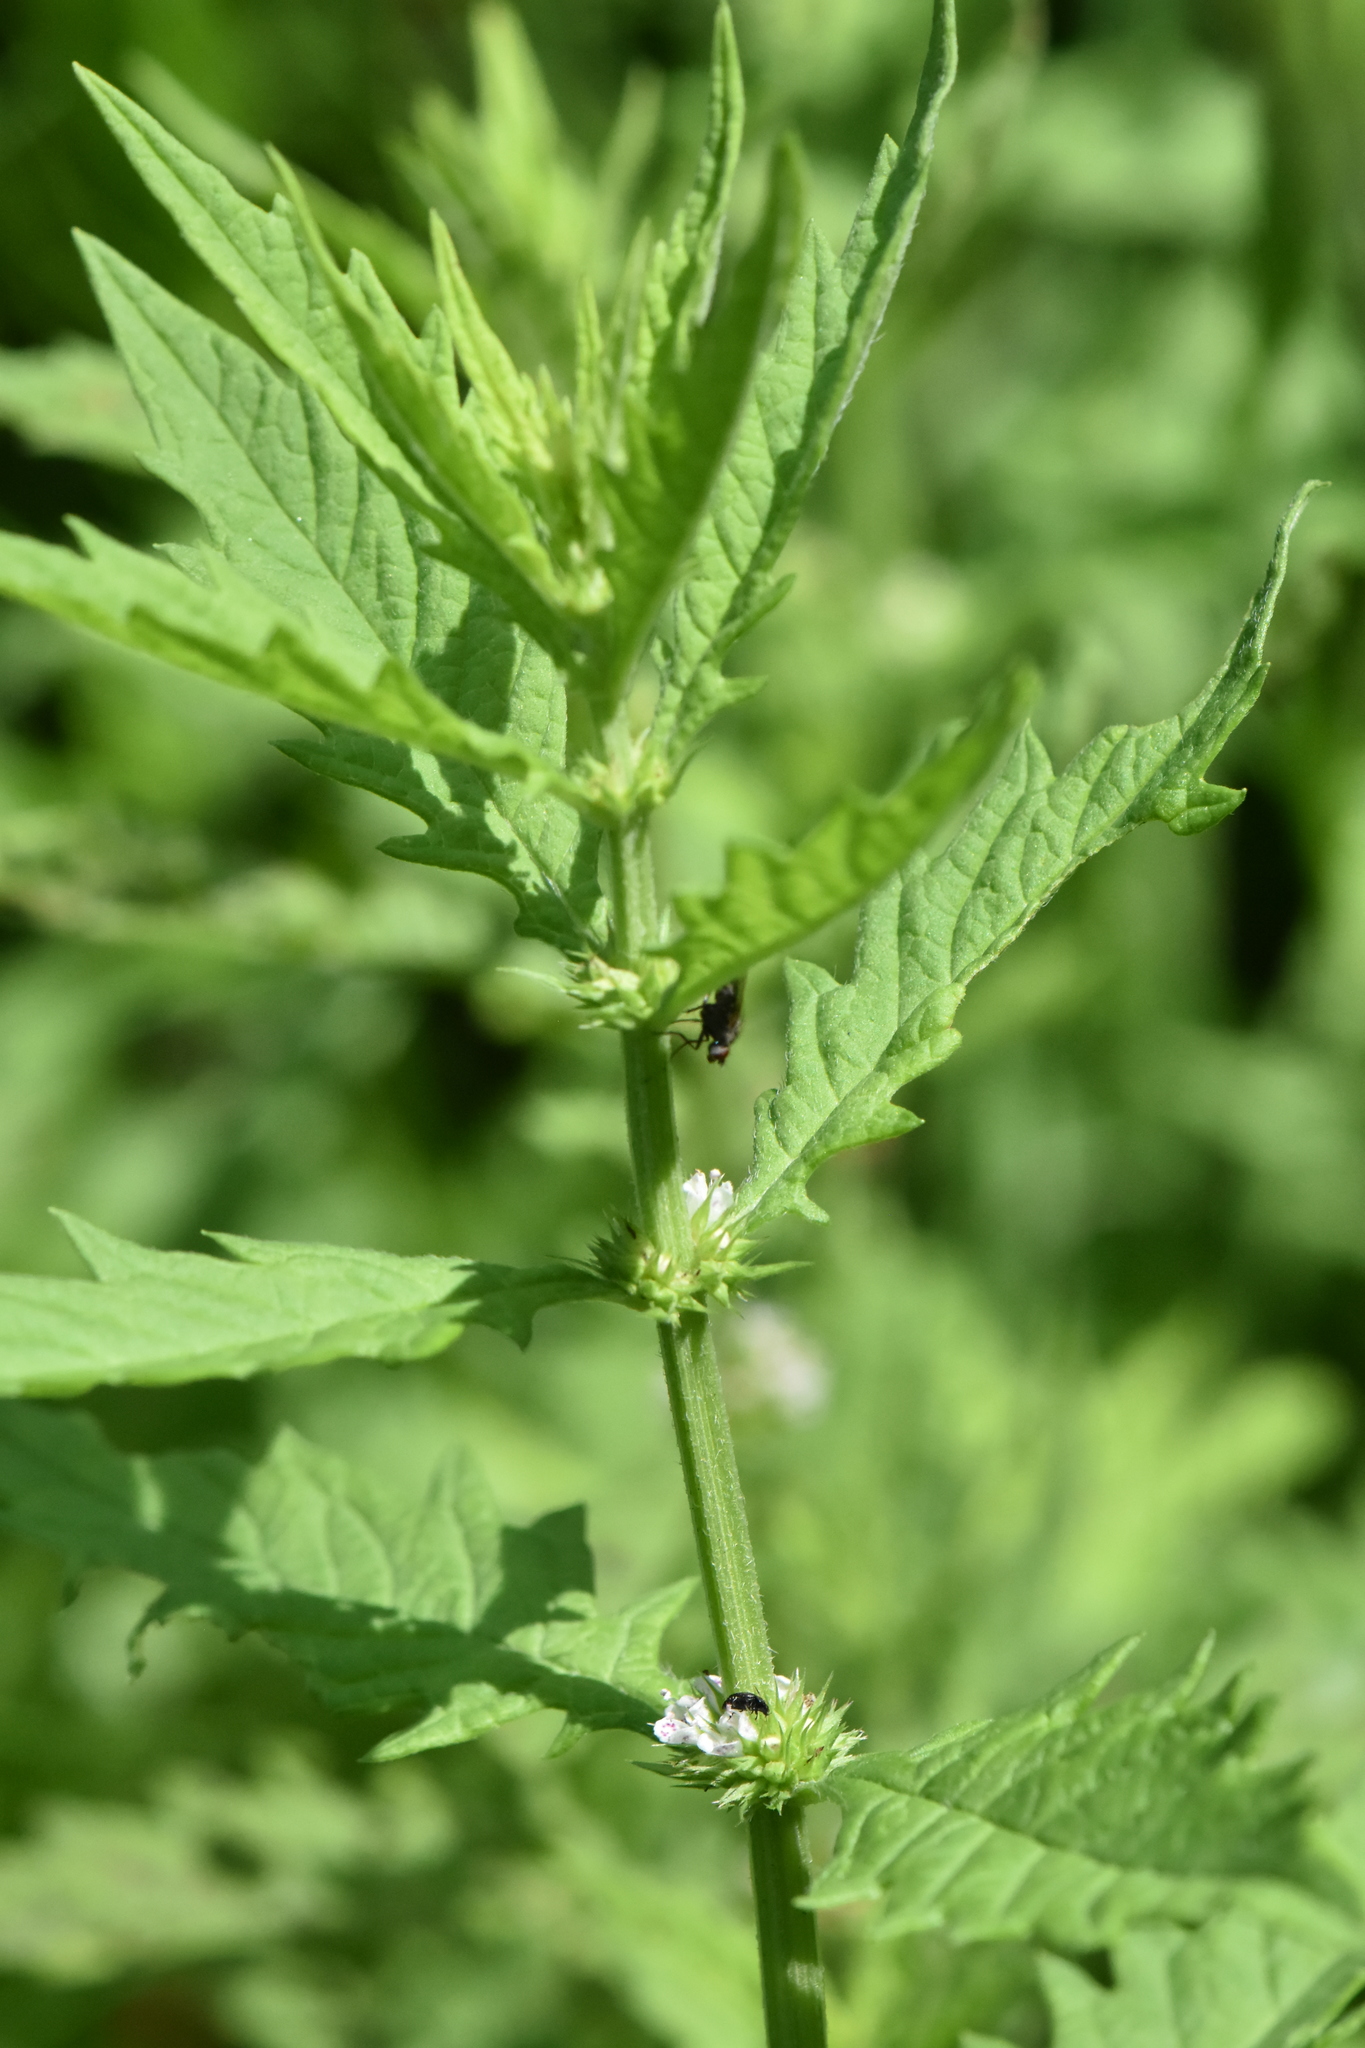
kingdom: Plantae
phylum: Tracheophyta
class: Magnoliopsida
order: Lamiales
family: Lamiaceae
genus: Lycopus
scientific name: Lycopus europaeus
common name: European bugleweed
